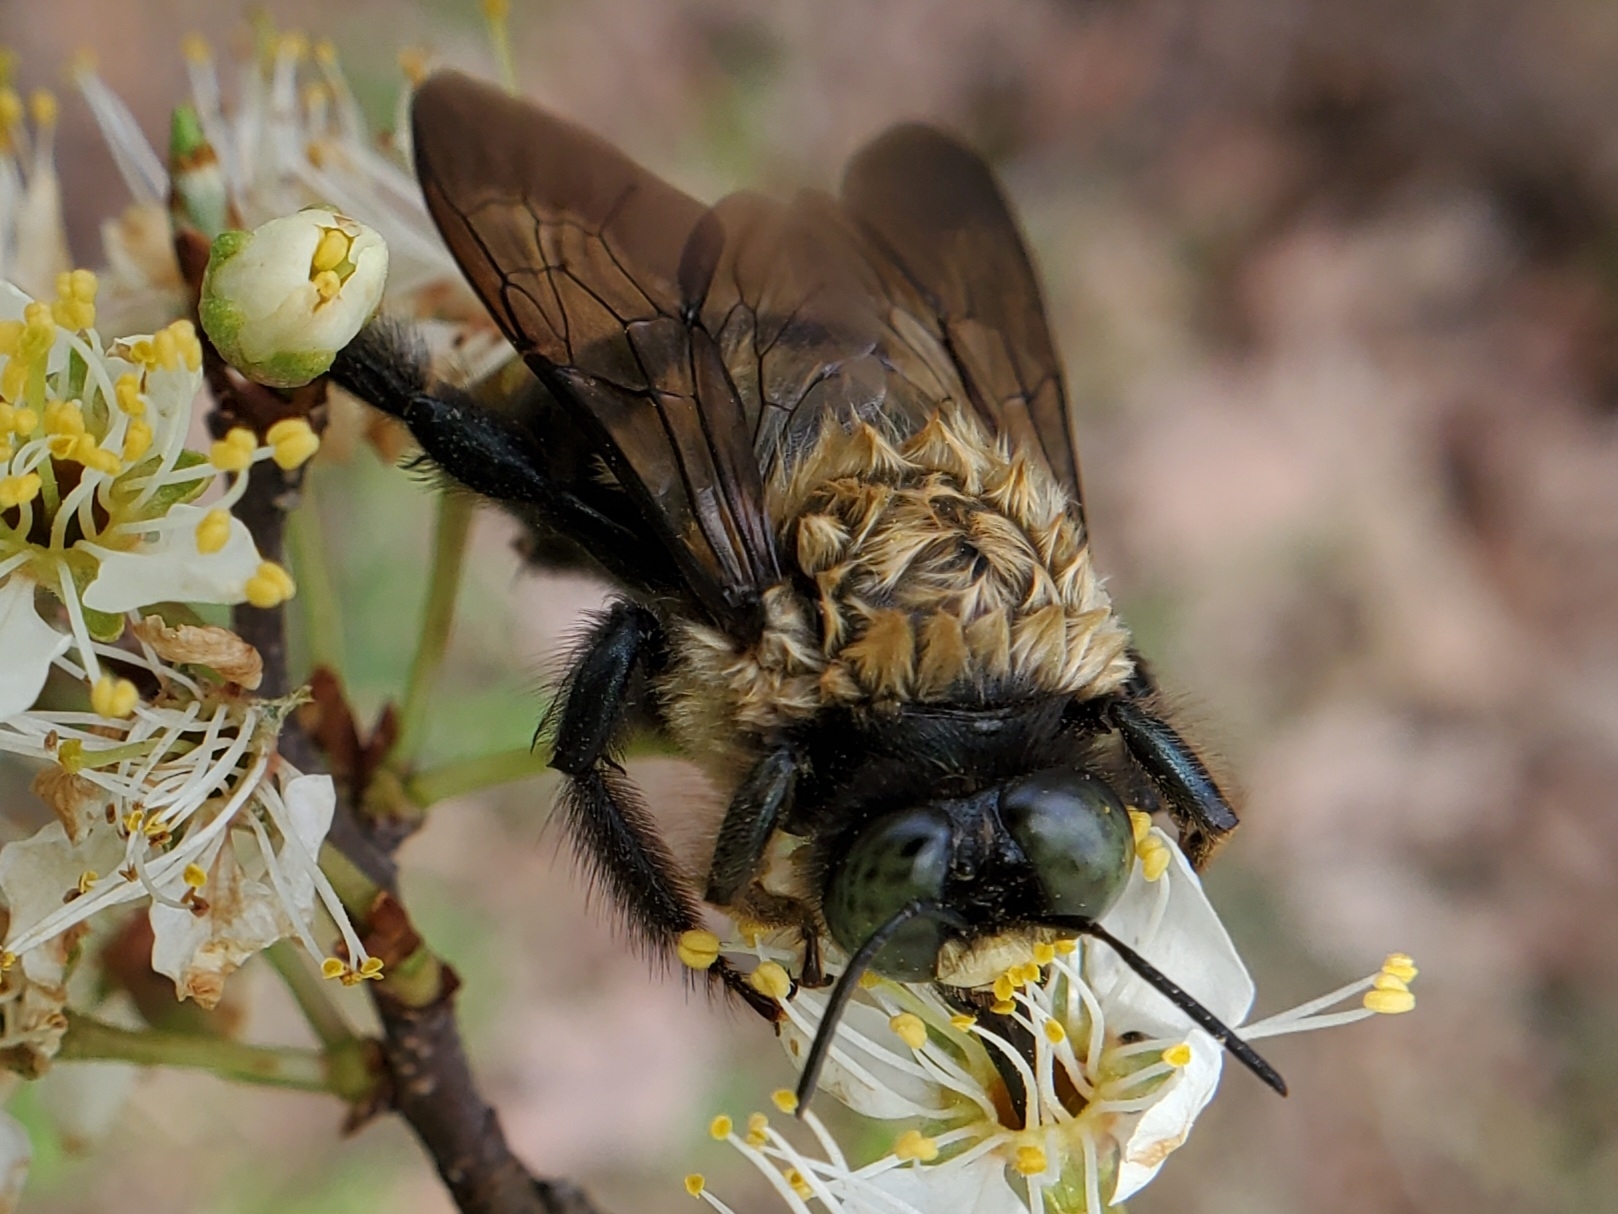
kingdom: Animalia
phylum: Arthropoda
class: Insecta
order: Hymenoptera
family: Apidae
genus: Xylocopa
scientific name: Xylocopa virginica
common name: Carpenter bee
